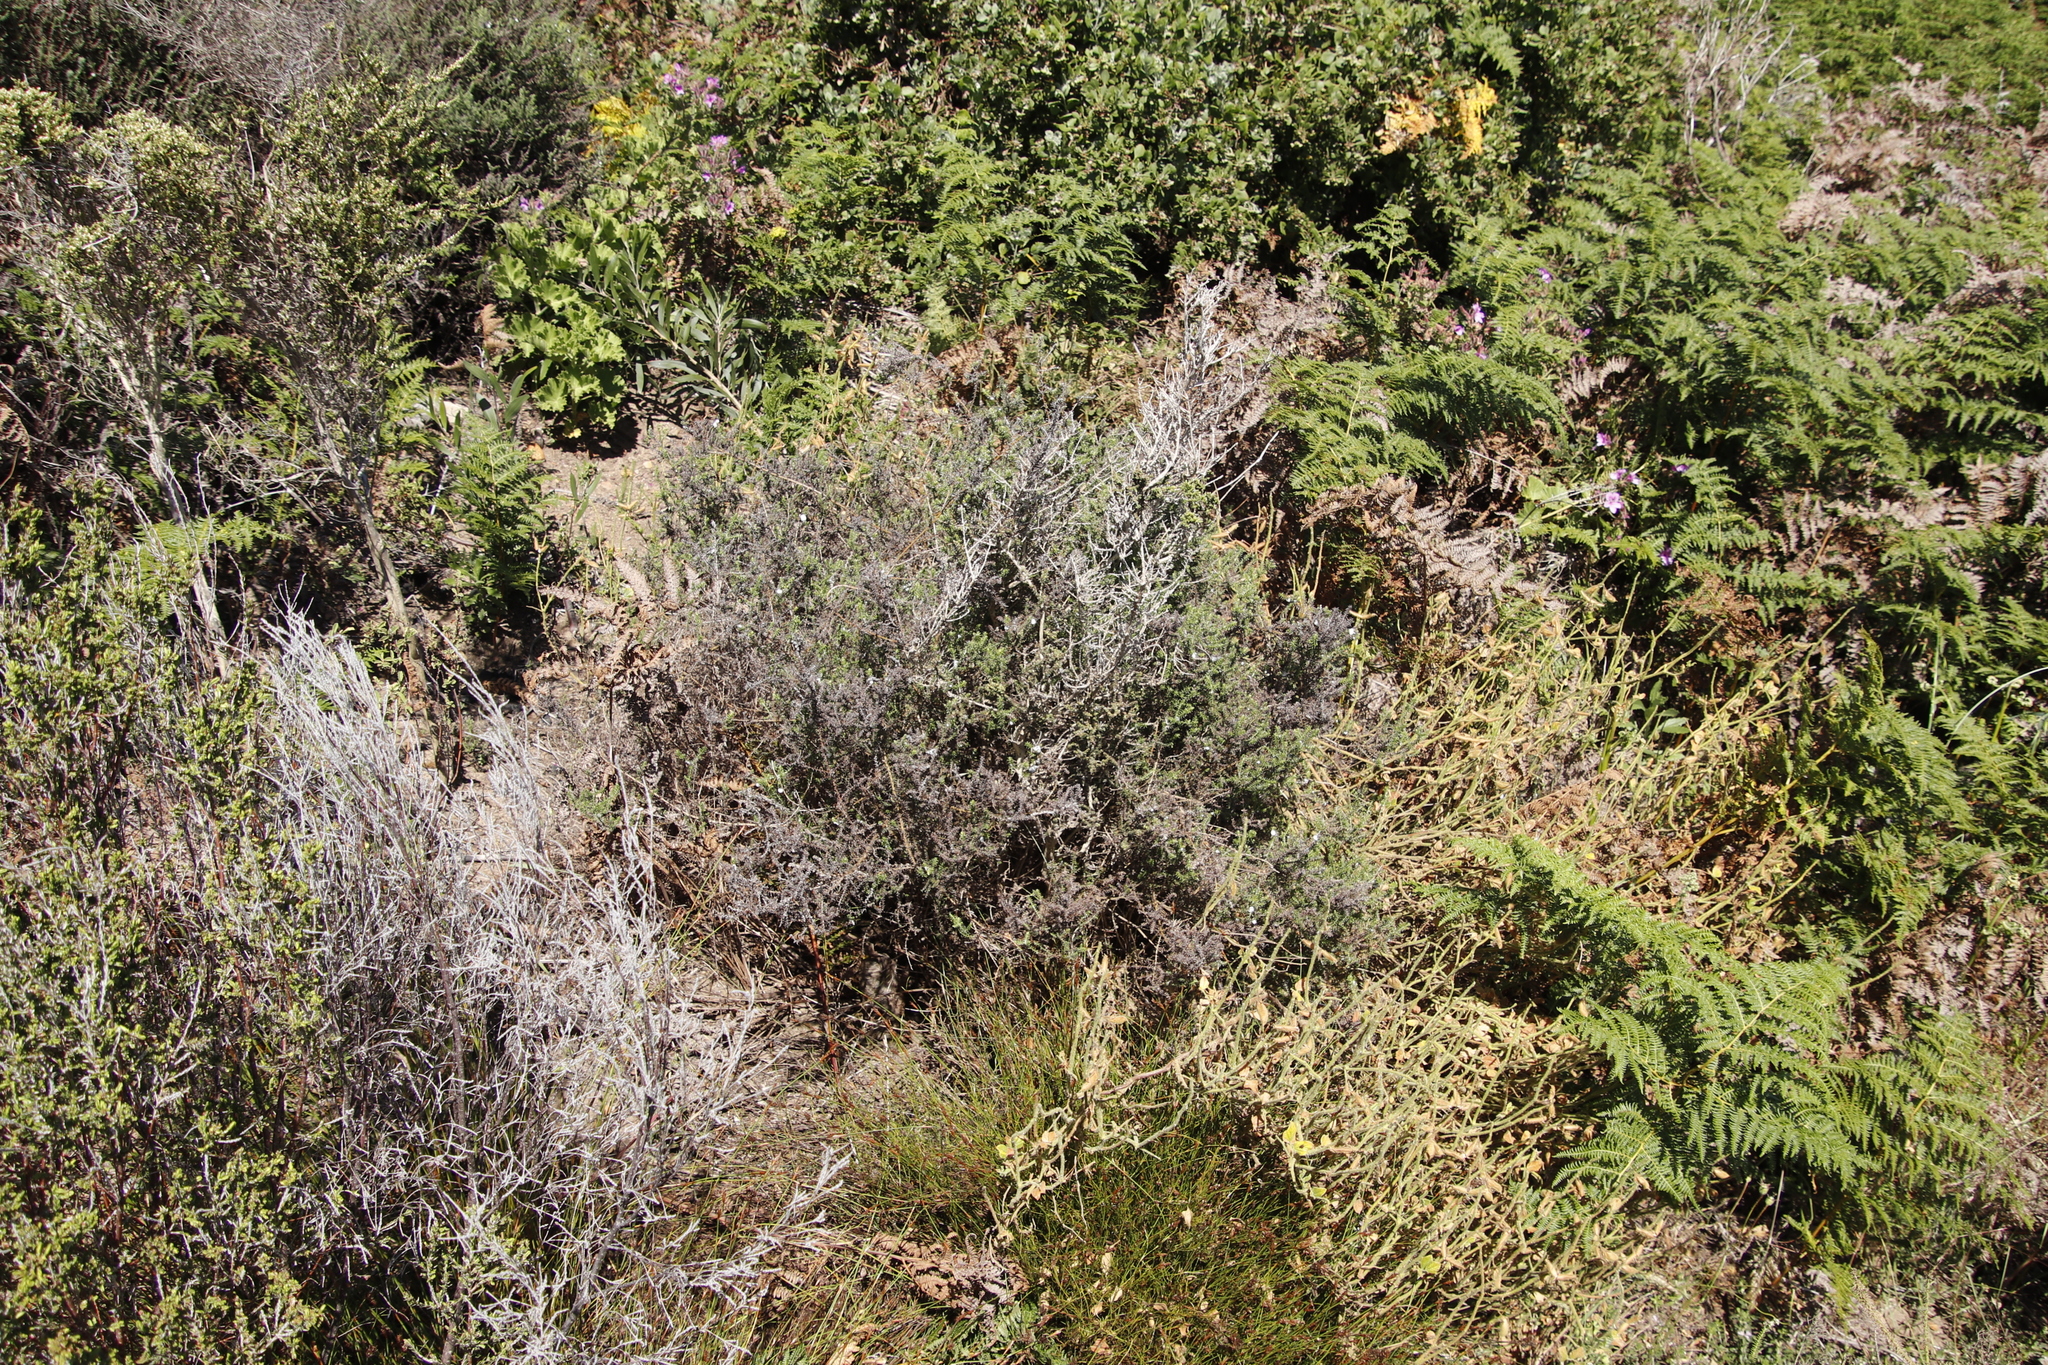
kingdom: Plantae
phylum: Tracheophyta
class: Magnoliopsida
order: Asterales
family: Asteraceae
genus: Seriphium
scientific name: Seriphium cinereum
